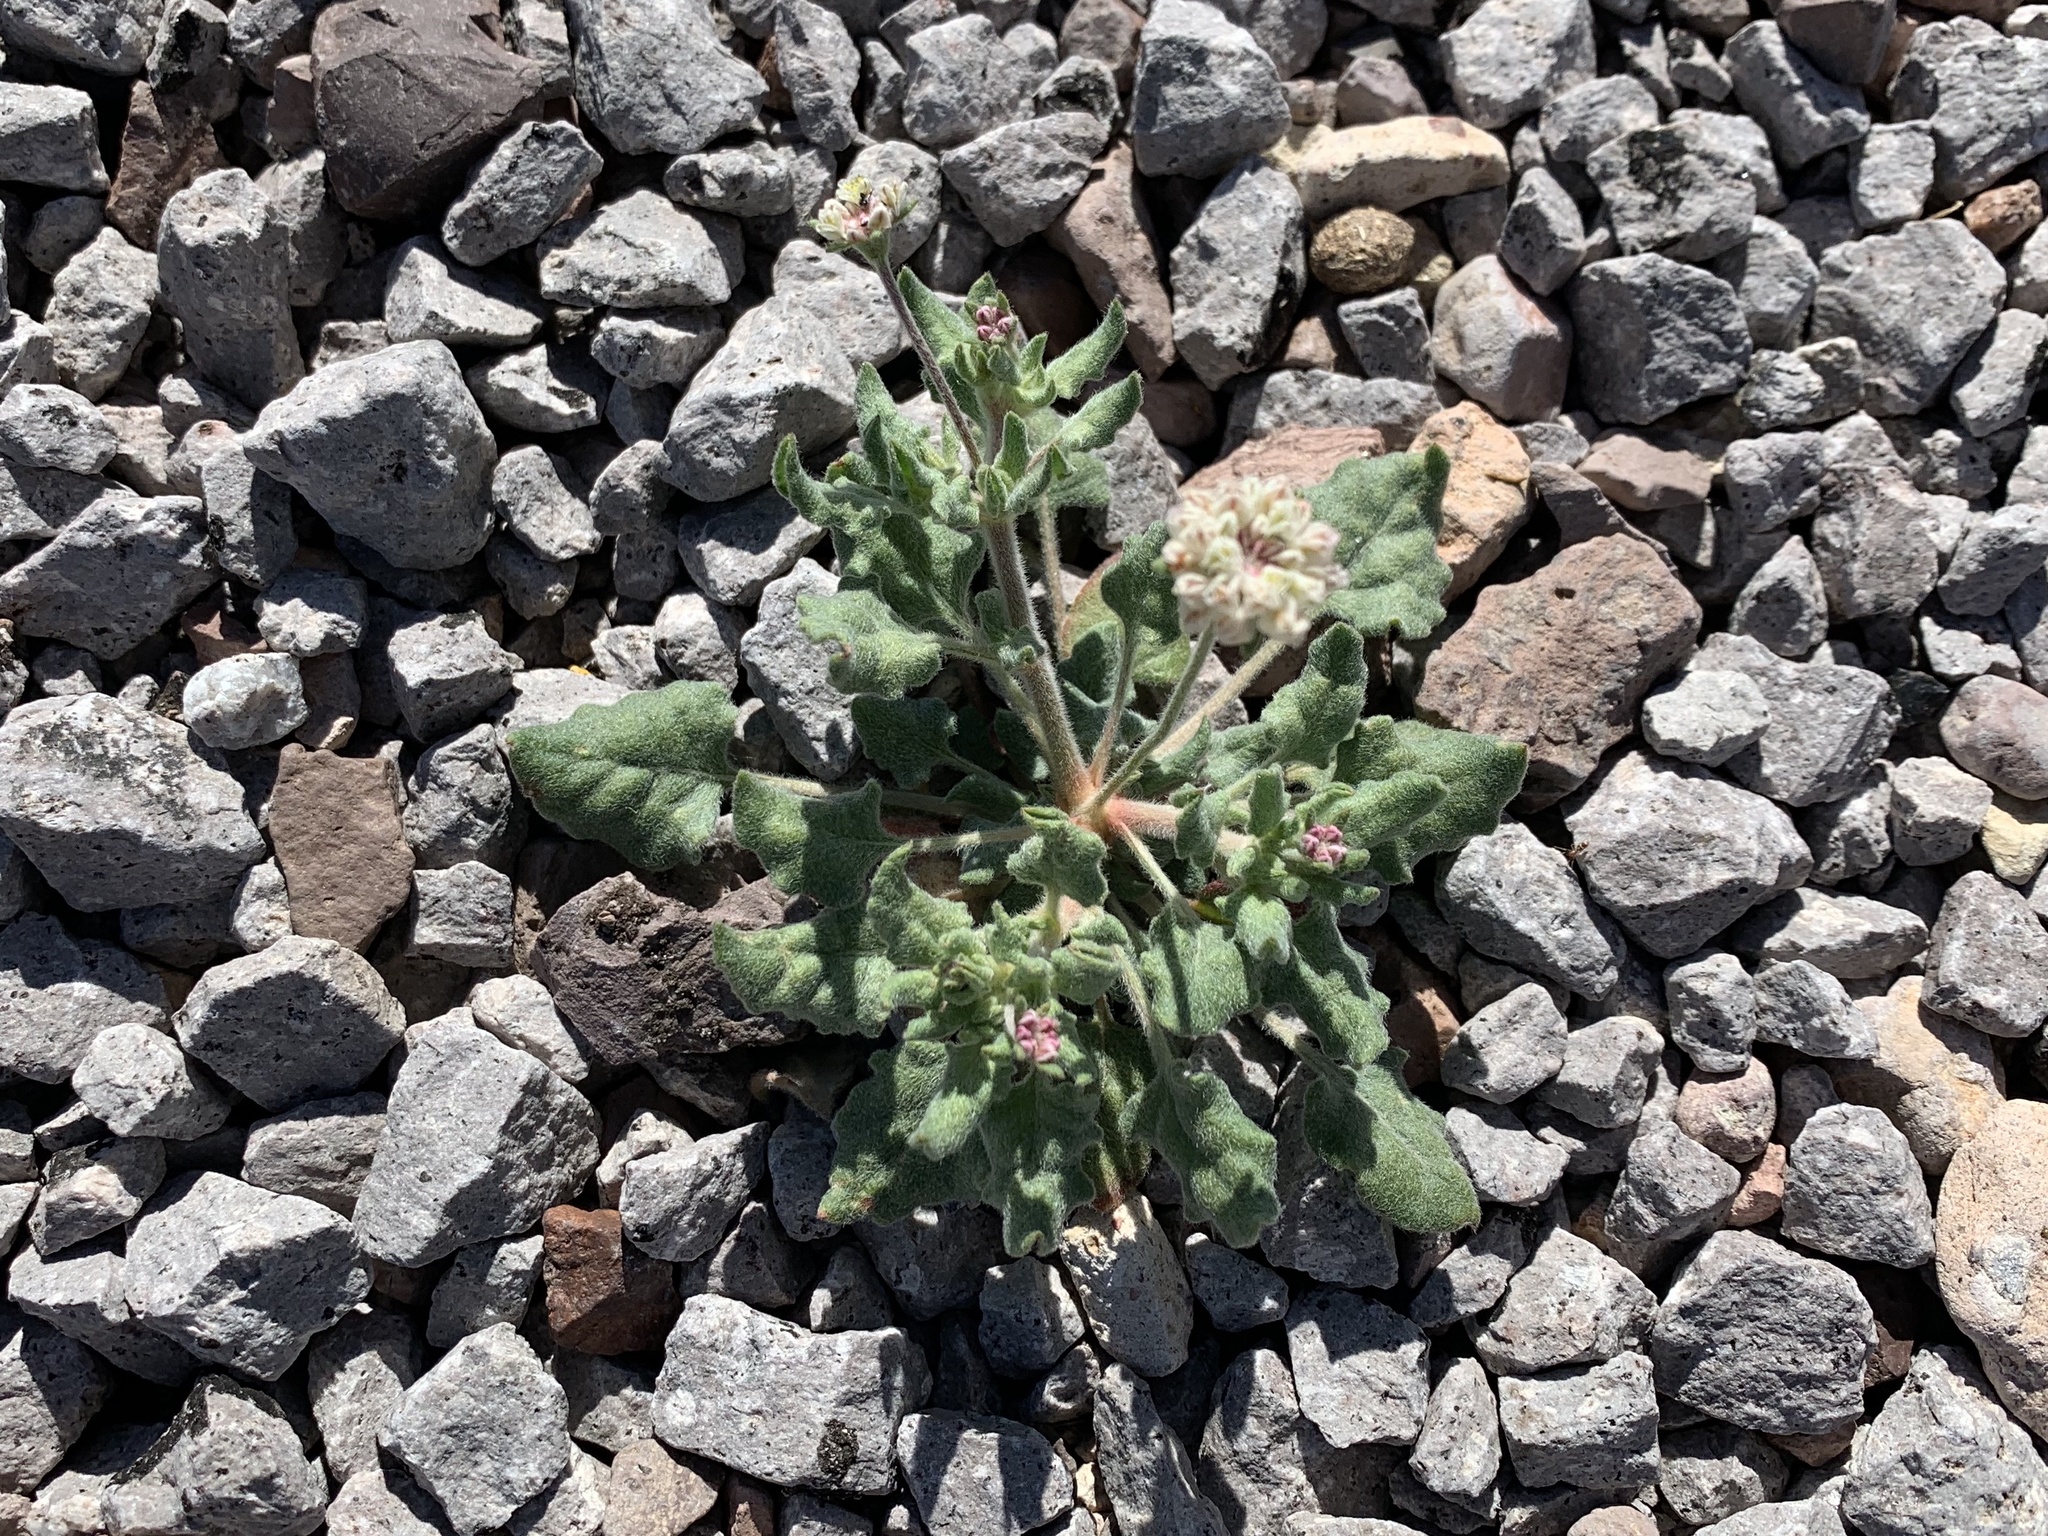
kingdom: Plantae
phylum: Tracheophyta
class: Magnoliopsida
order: Caryophyllales
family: Polygonaceae
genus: Eriogonum
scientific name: Eriogonum abertianum
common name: Abert's wild buckwheat
